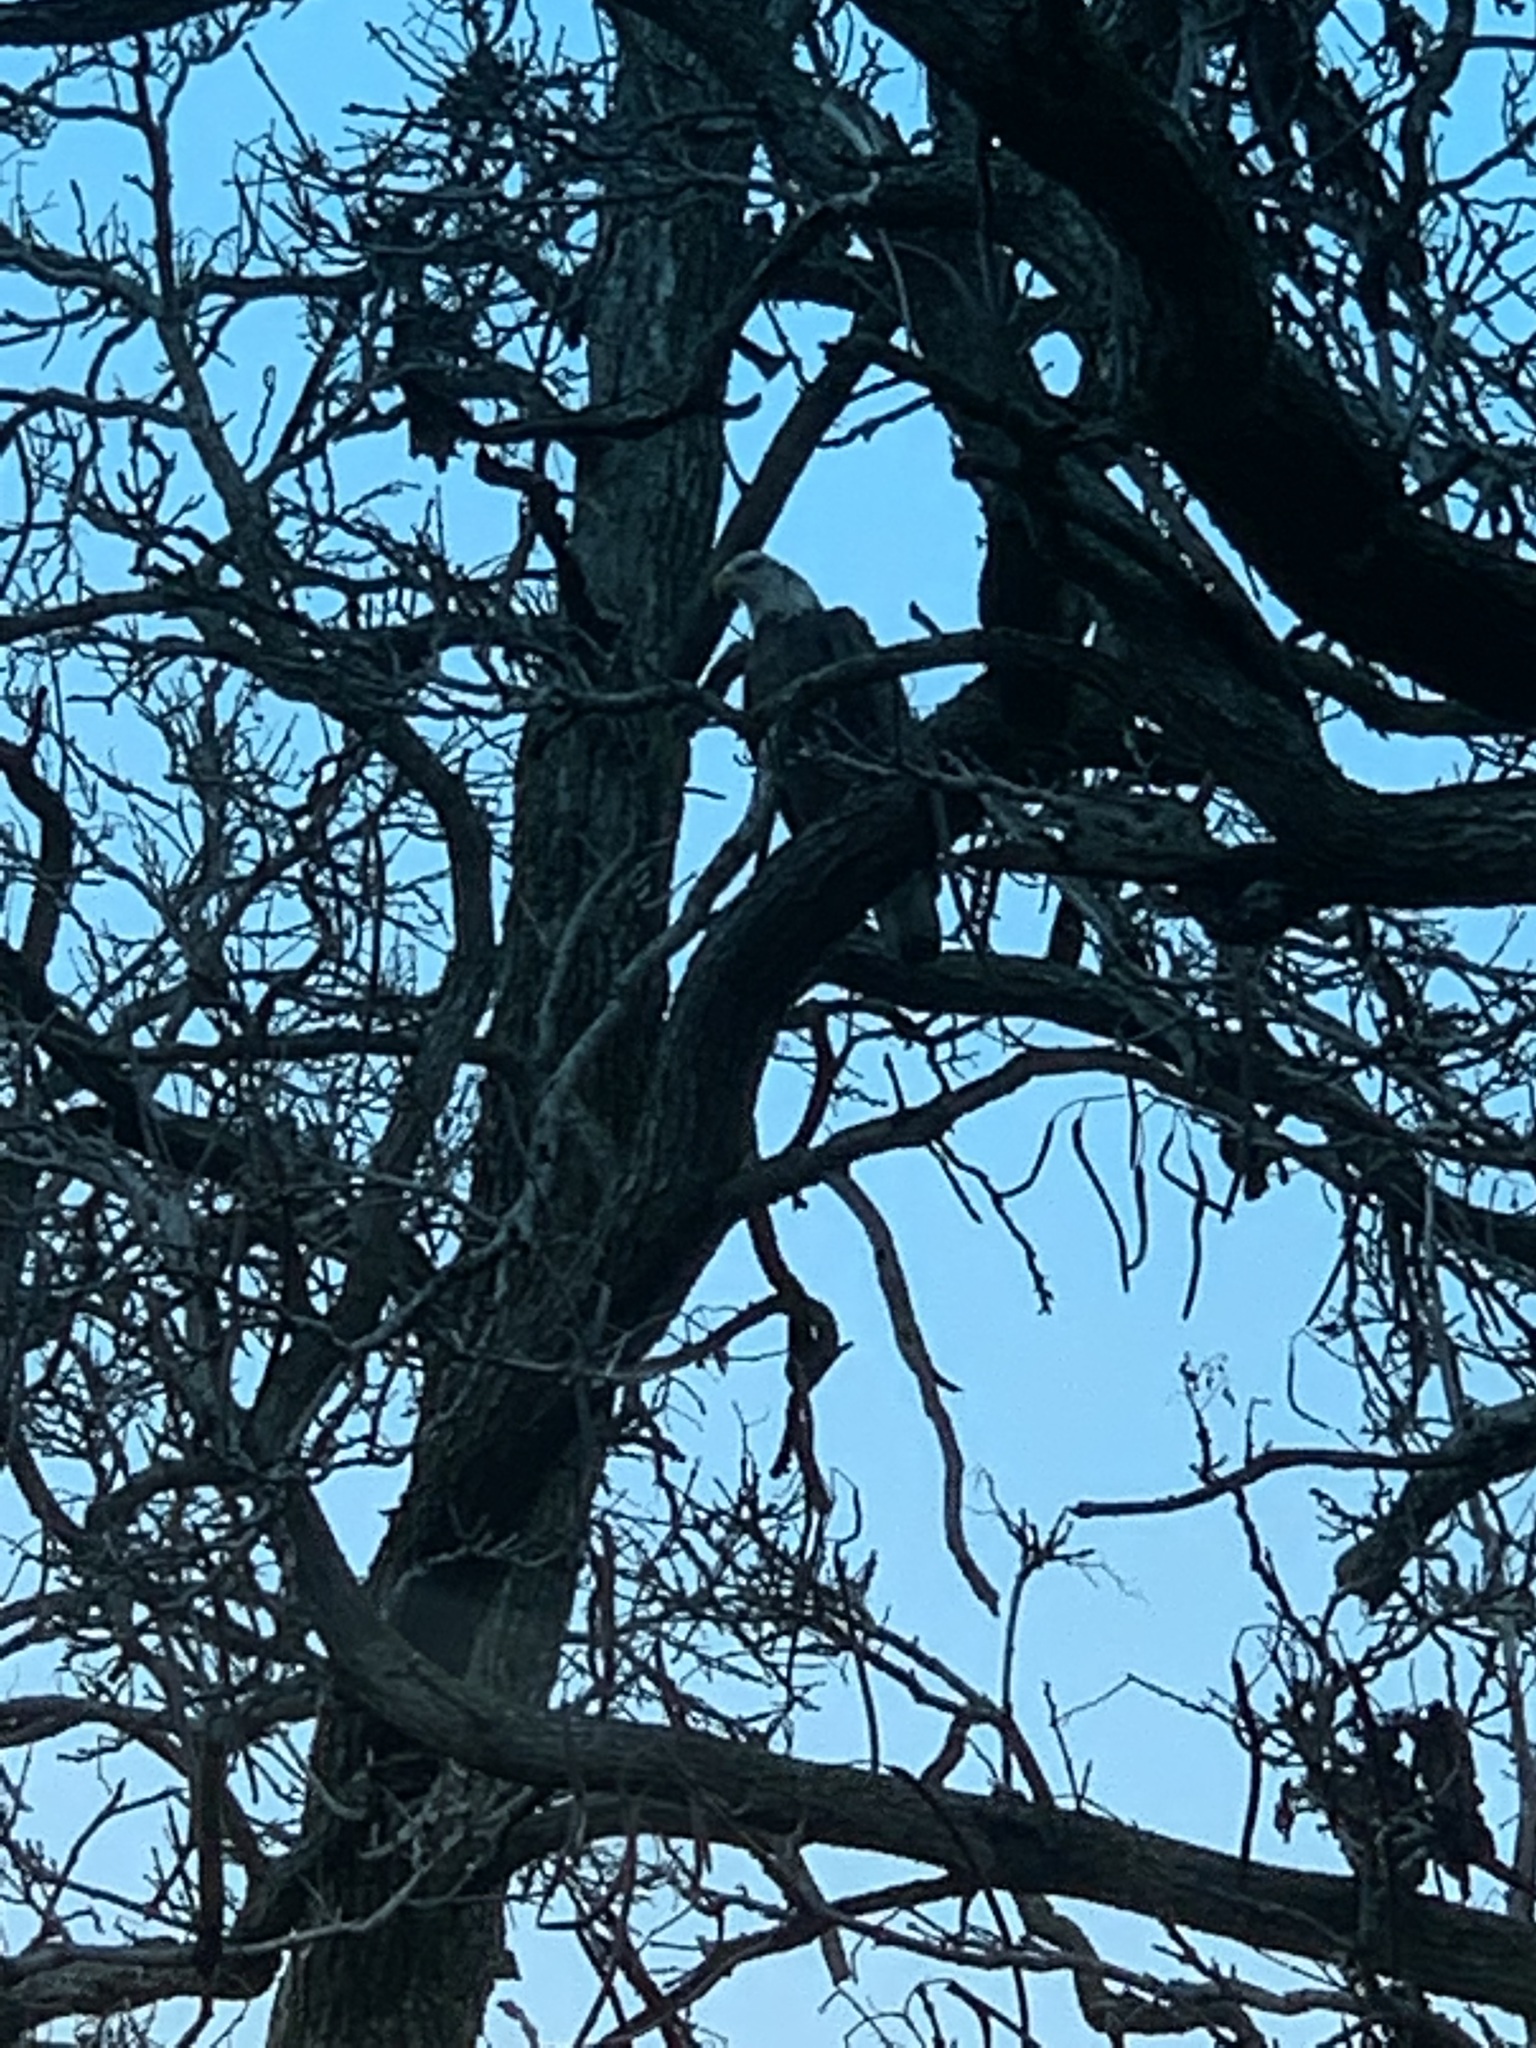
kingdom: Animalia
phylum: Chordata
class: Aves
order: Accipitriformes
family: Accipitridae
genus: Haliaeetus
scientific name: Haliaeetus leucocephalus
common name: Bald eagle
